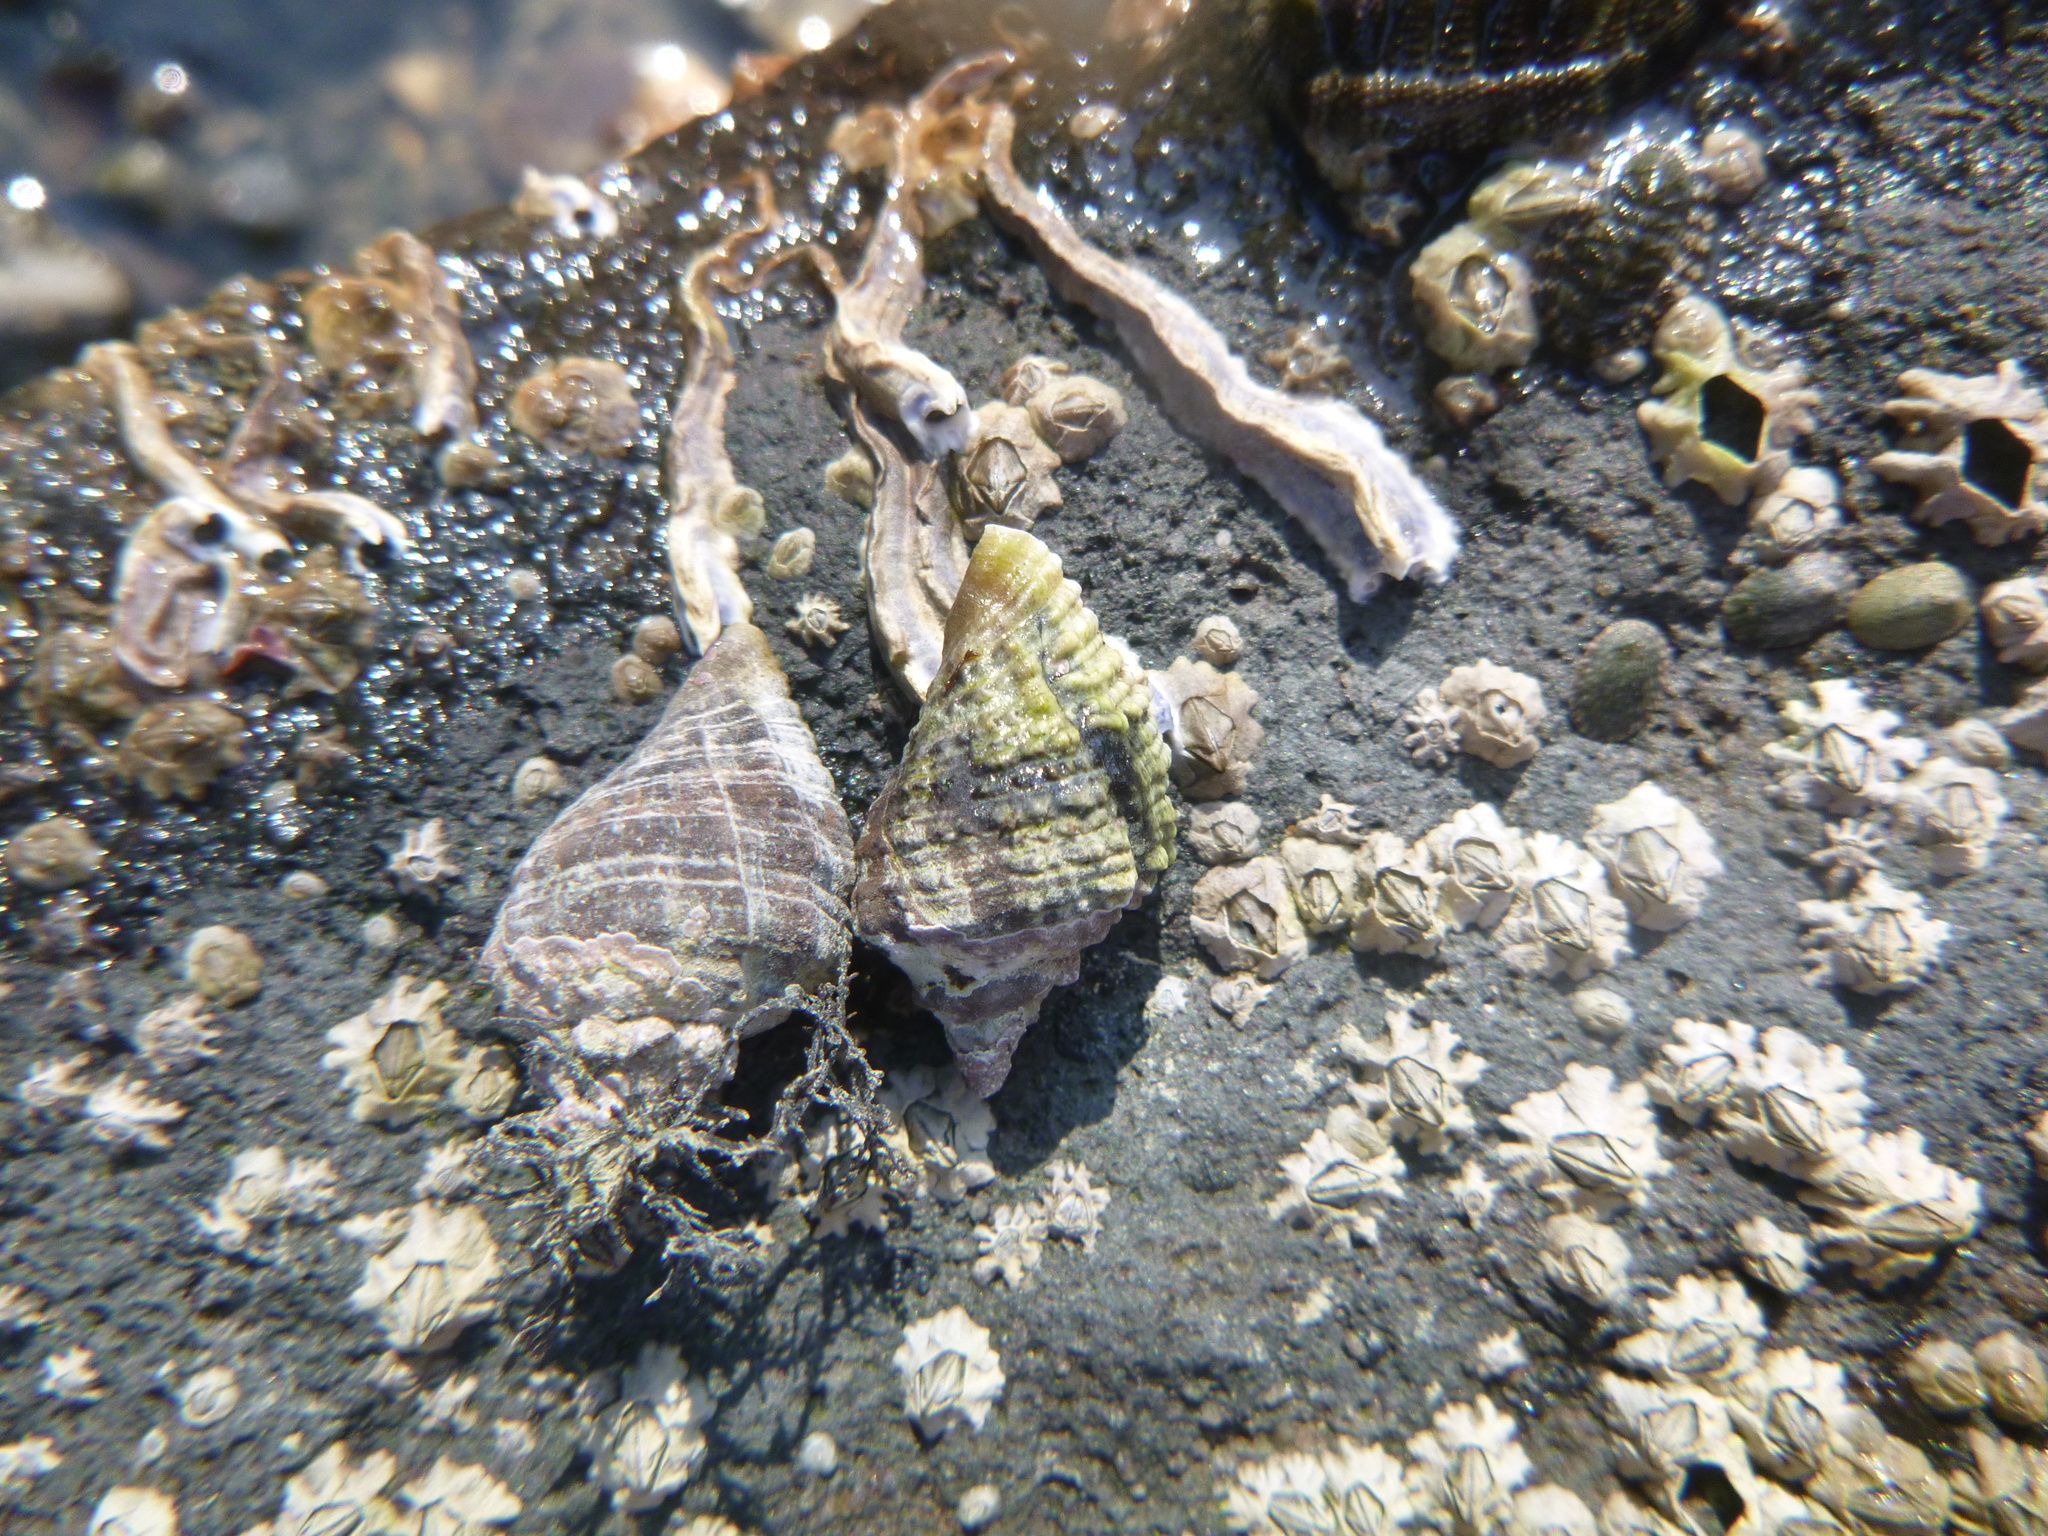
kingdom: Animalia
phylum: Mollusca
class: Gastropoda
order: Neogastropoda
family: Muricidae
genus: Haustrum
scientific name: Haustrum haustorium
